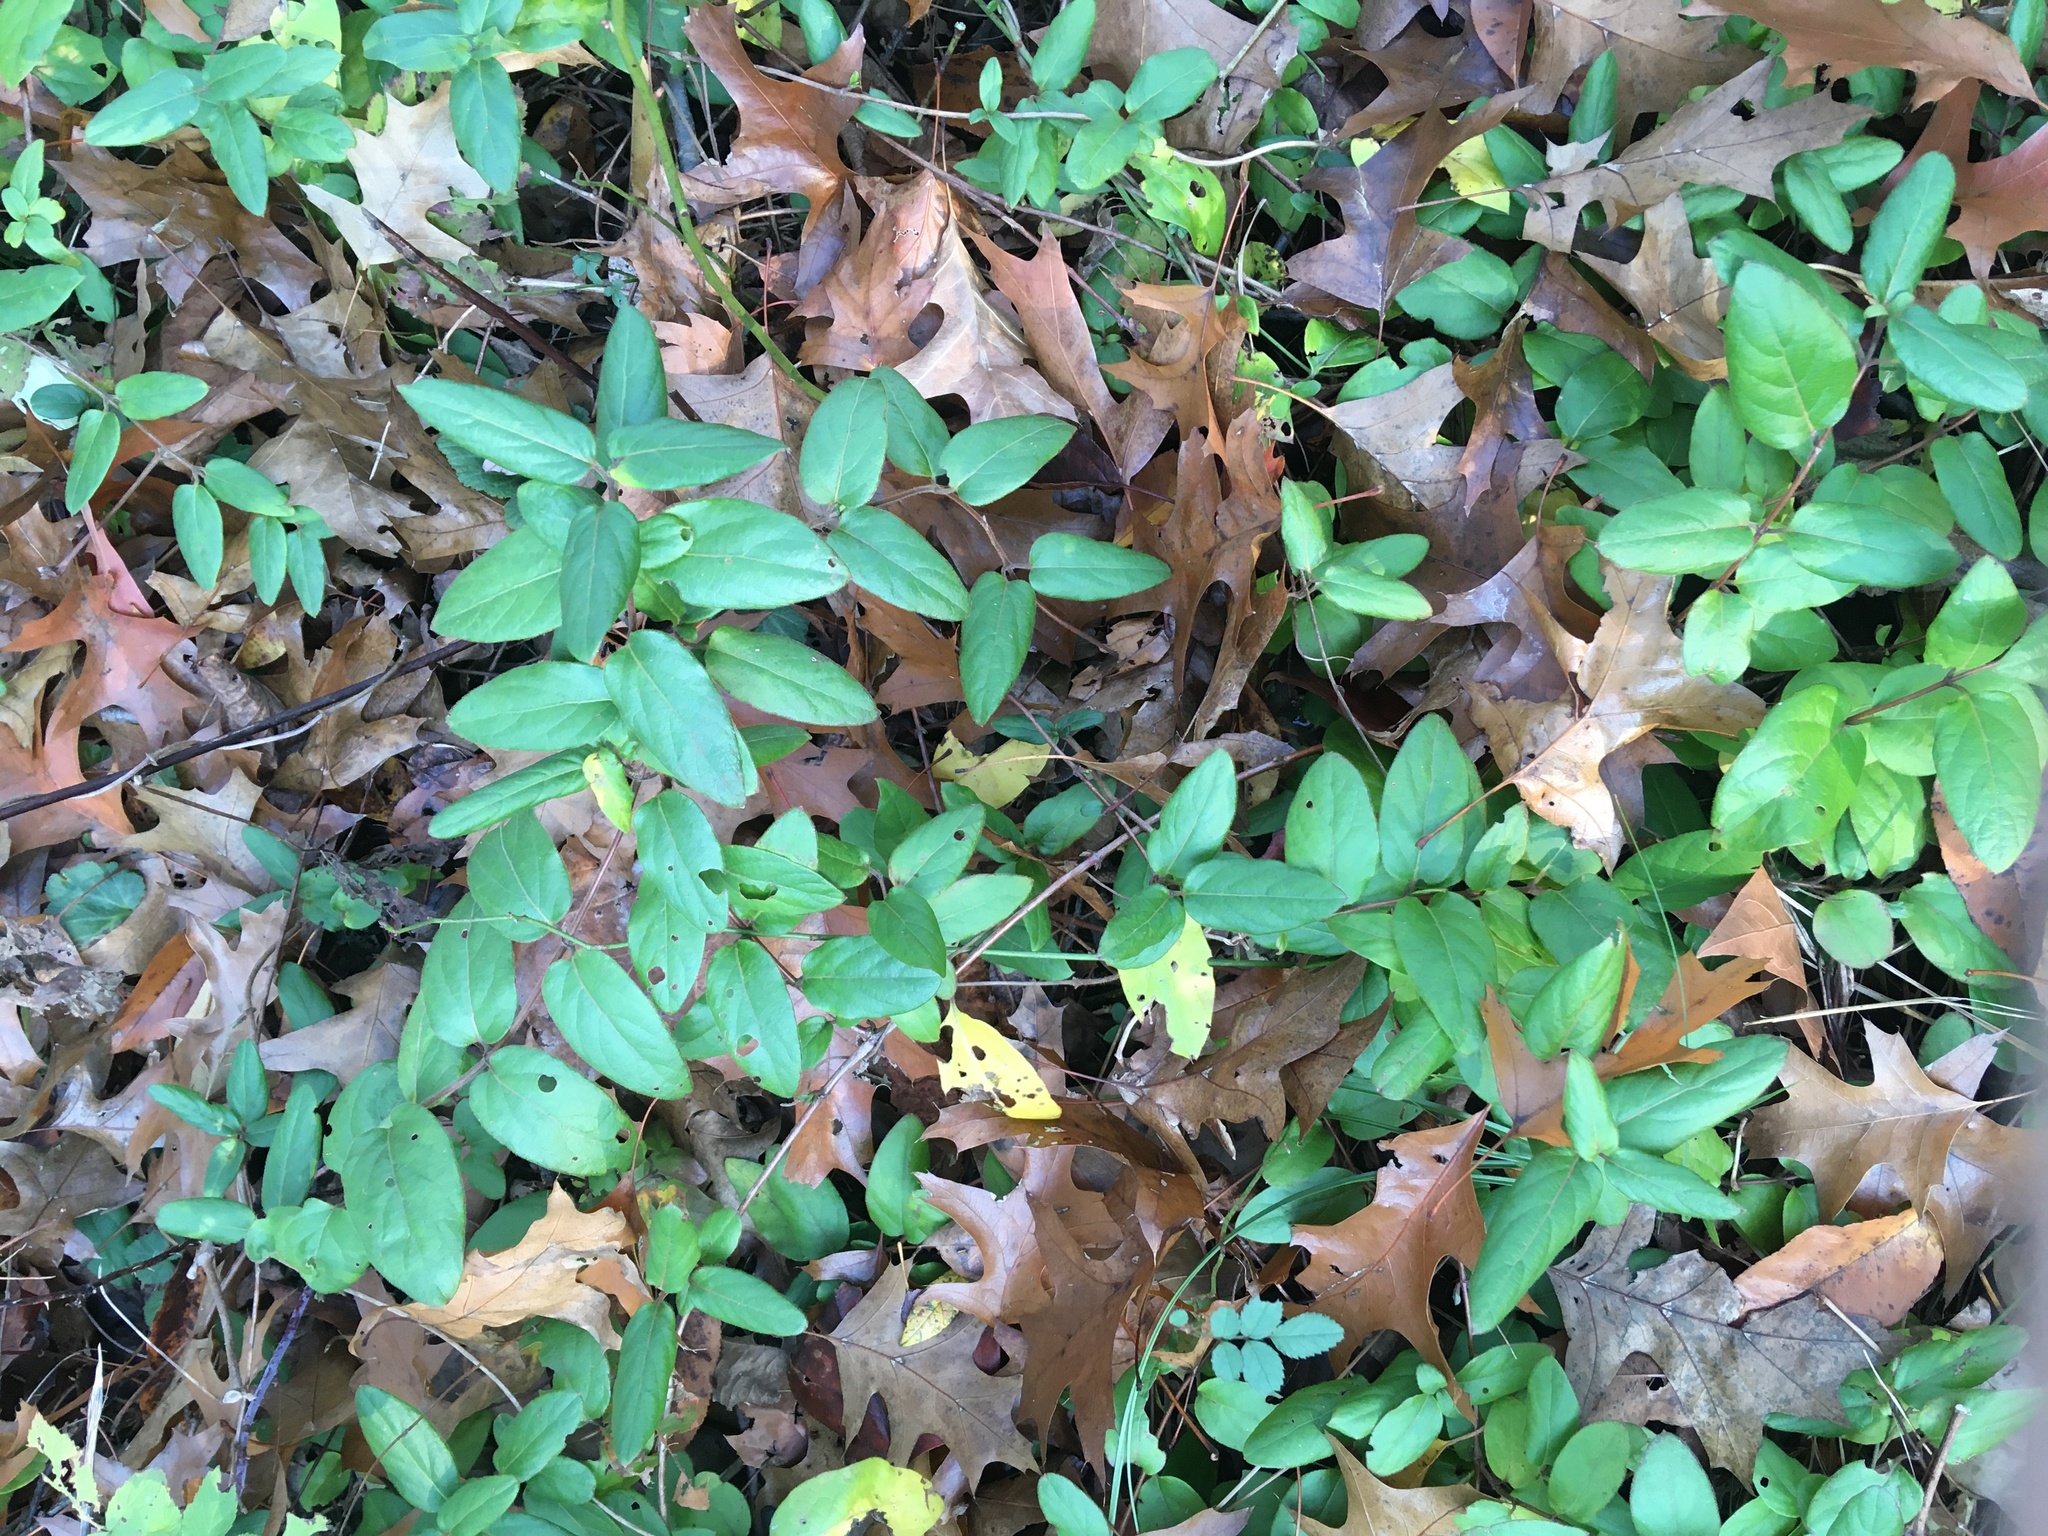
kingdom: Plantae
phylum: Tracheophyta
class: Magnoliopsida
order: Dipsacales
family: Caprifoliaceae
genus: Lonicera
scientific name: Lonicera japonica
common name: Japanese honeysuckle
